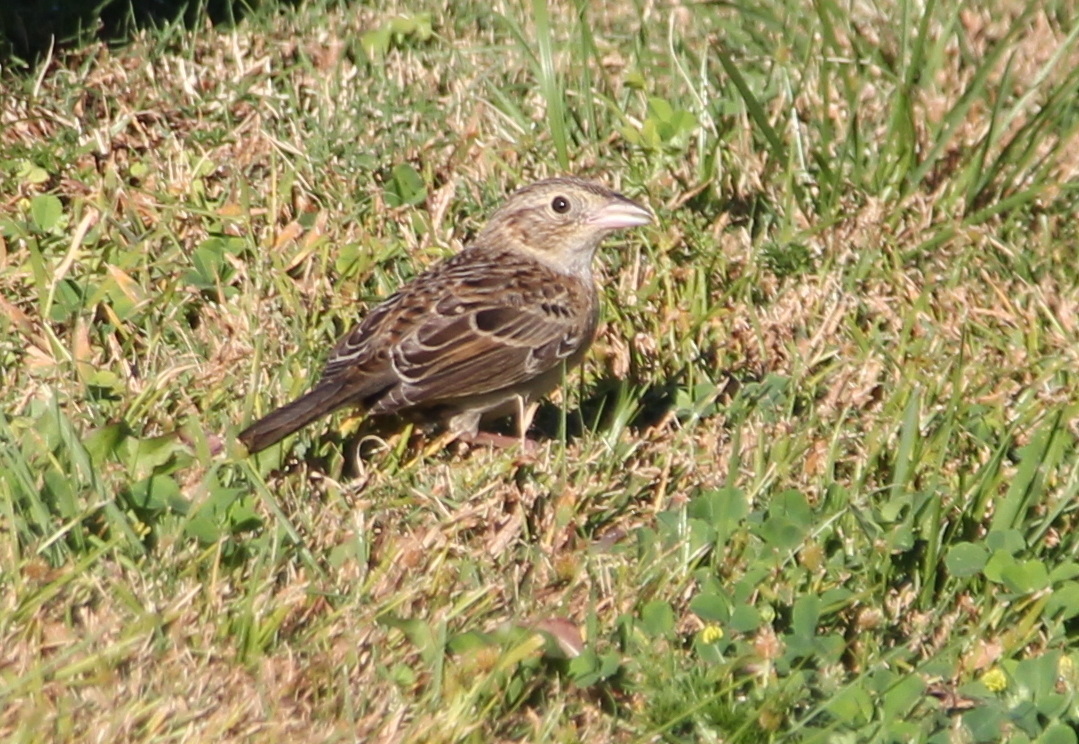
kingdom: Animalia
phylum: Chordata
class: Aves
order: Passeriformes
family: Passerellidae
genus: Peucaea
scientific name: Peucaea cassinii
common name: Cassin's sparrow
